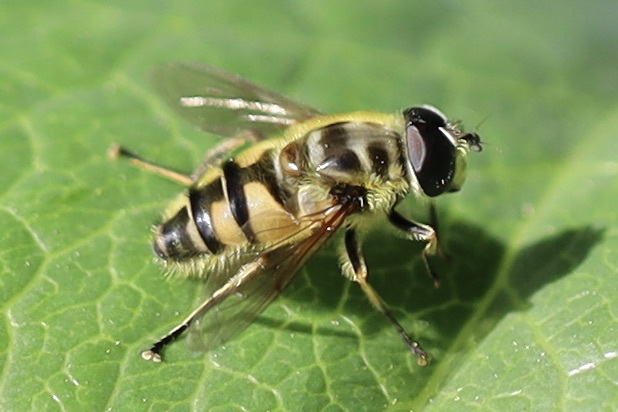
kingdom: Animalia
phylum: Arthropoda
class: Insecta
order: Diptera
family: Syrphidae
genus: Myathropa
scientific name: Myathropa florea
